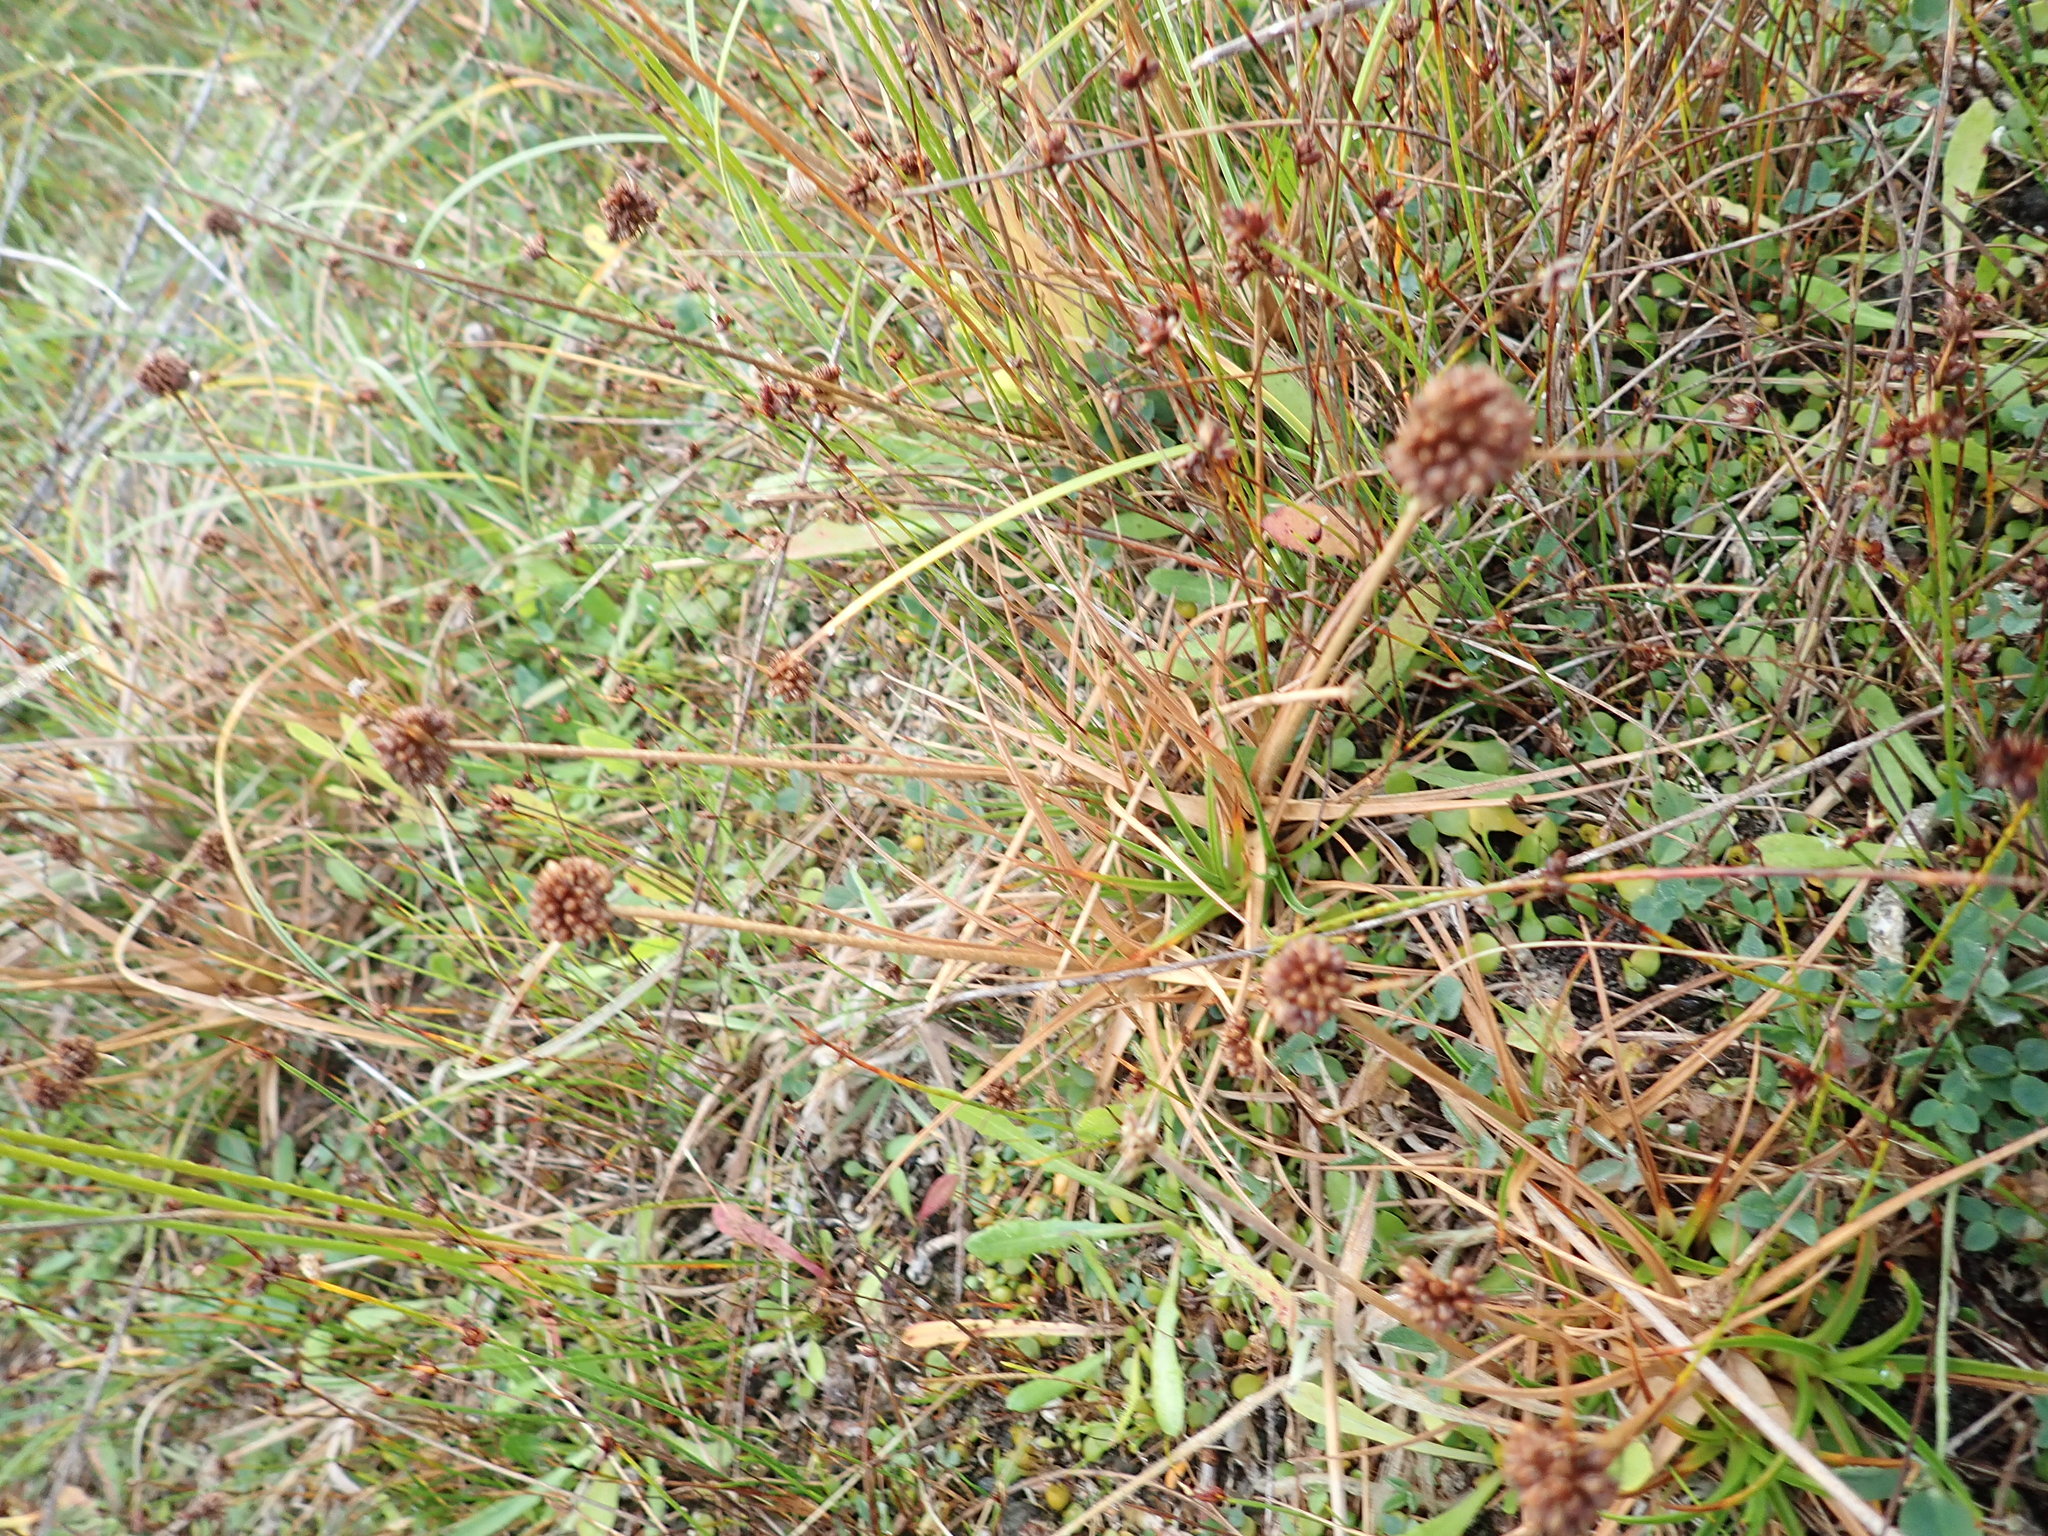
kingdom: Plantae
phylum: Tracheophyta
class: Liliopsida
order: Poales
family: Juncaceae
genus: Juncus
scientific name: Juncus caespiticius
